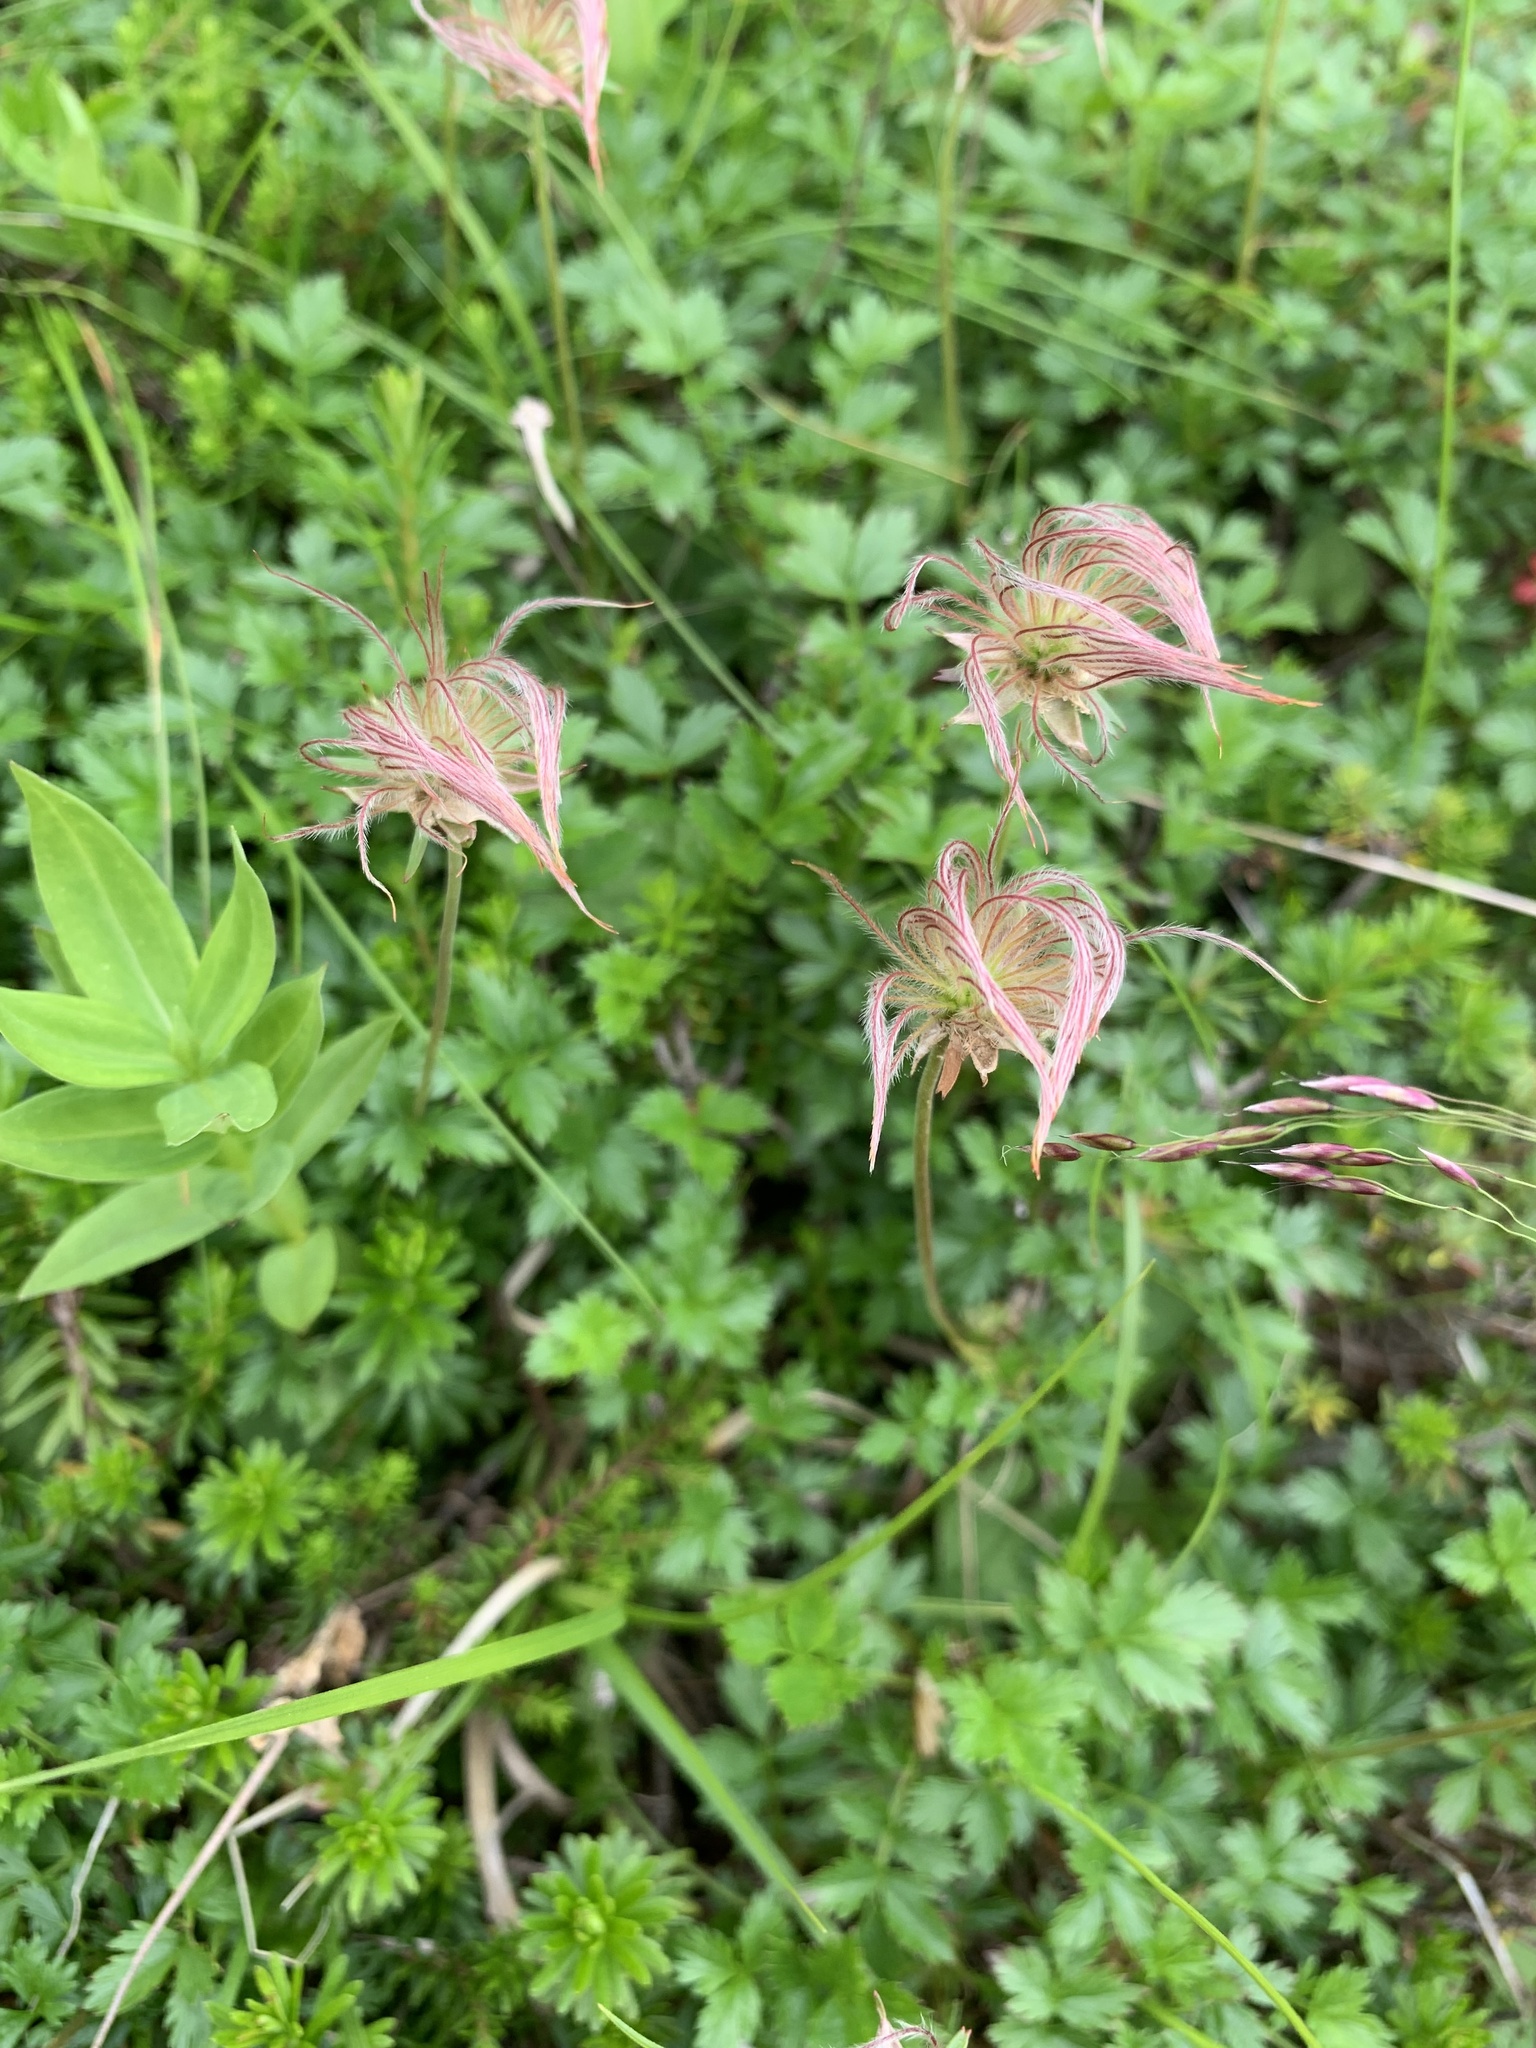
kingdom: Plantae
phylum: Tracheophyta
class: Magnoliopsida
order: Rosales
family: Rosaceae
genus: Geum
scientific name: Geum pentapetalum
